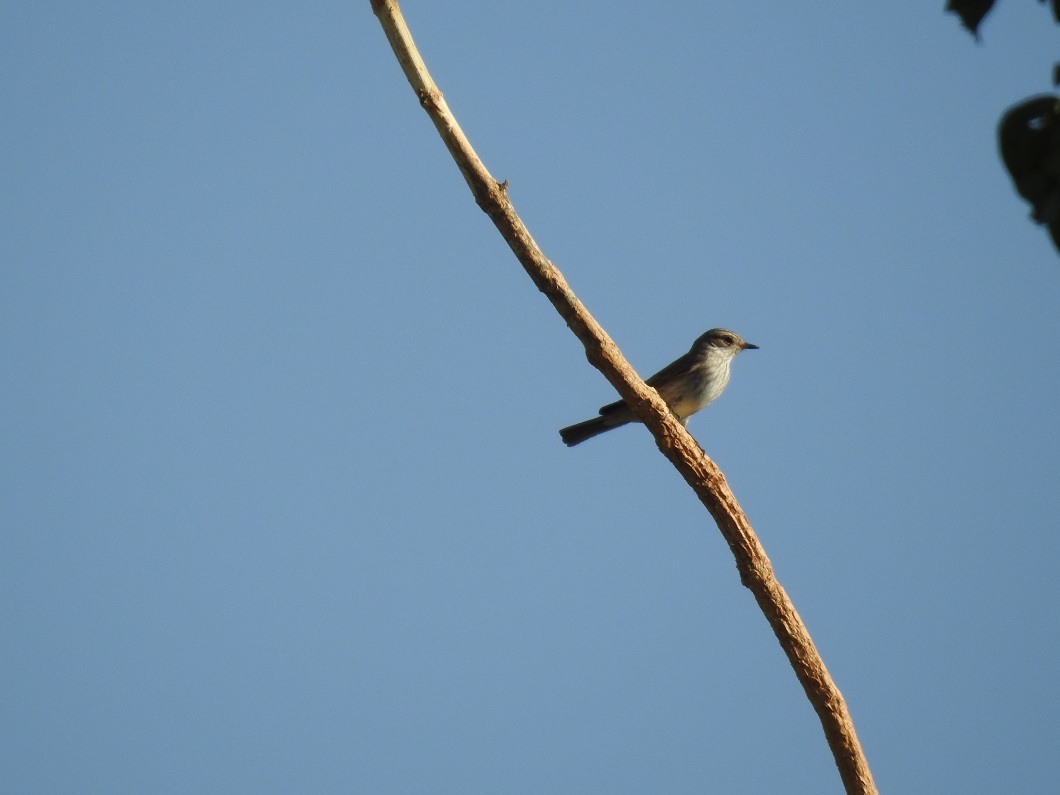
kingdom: Animalia
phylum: Chordata
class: Aves
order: Passeriformes
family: Muscicapidae
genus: Muscicapa
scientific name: Muscicapa striata
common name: Spotted flycatcher
